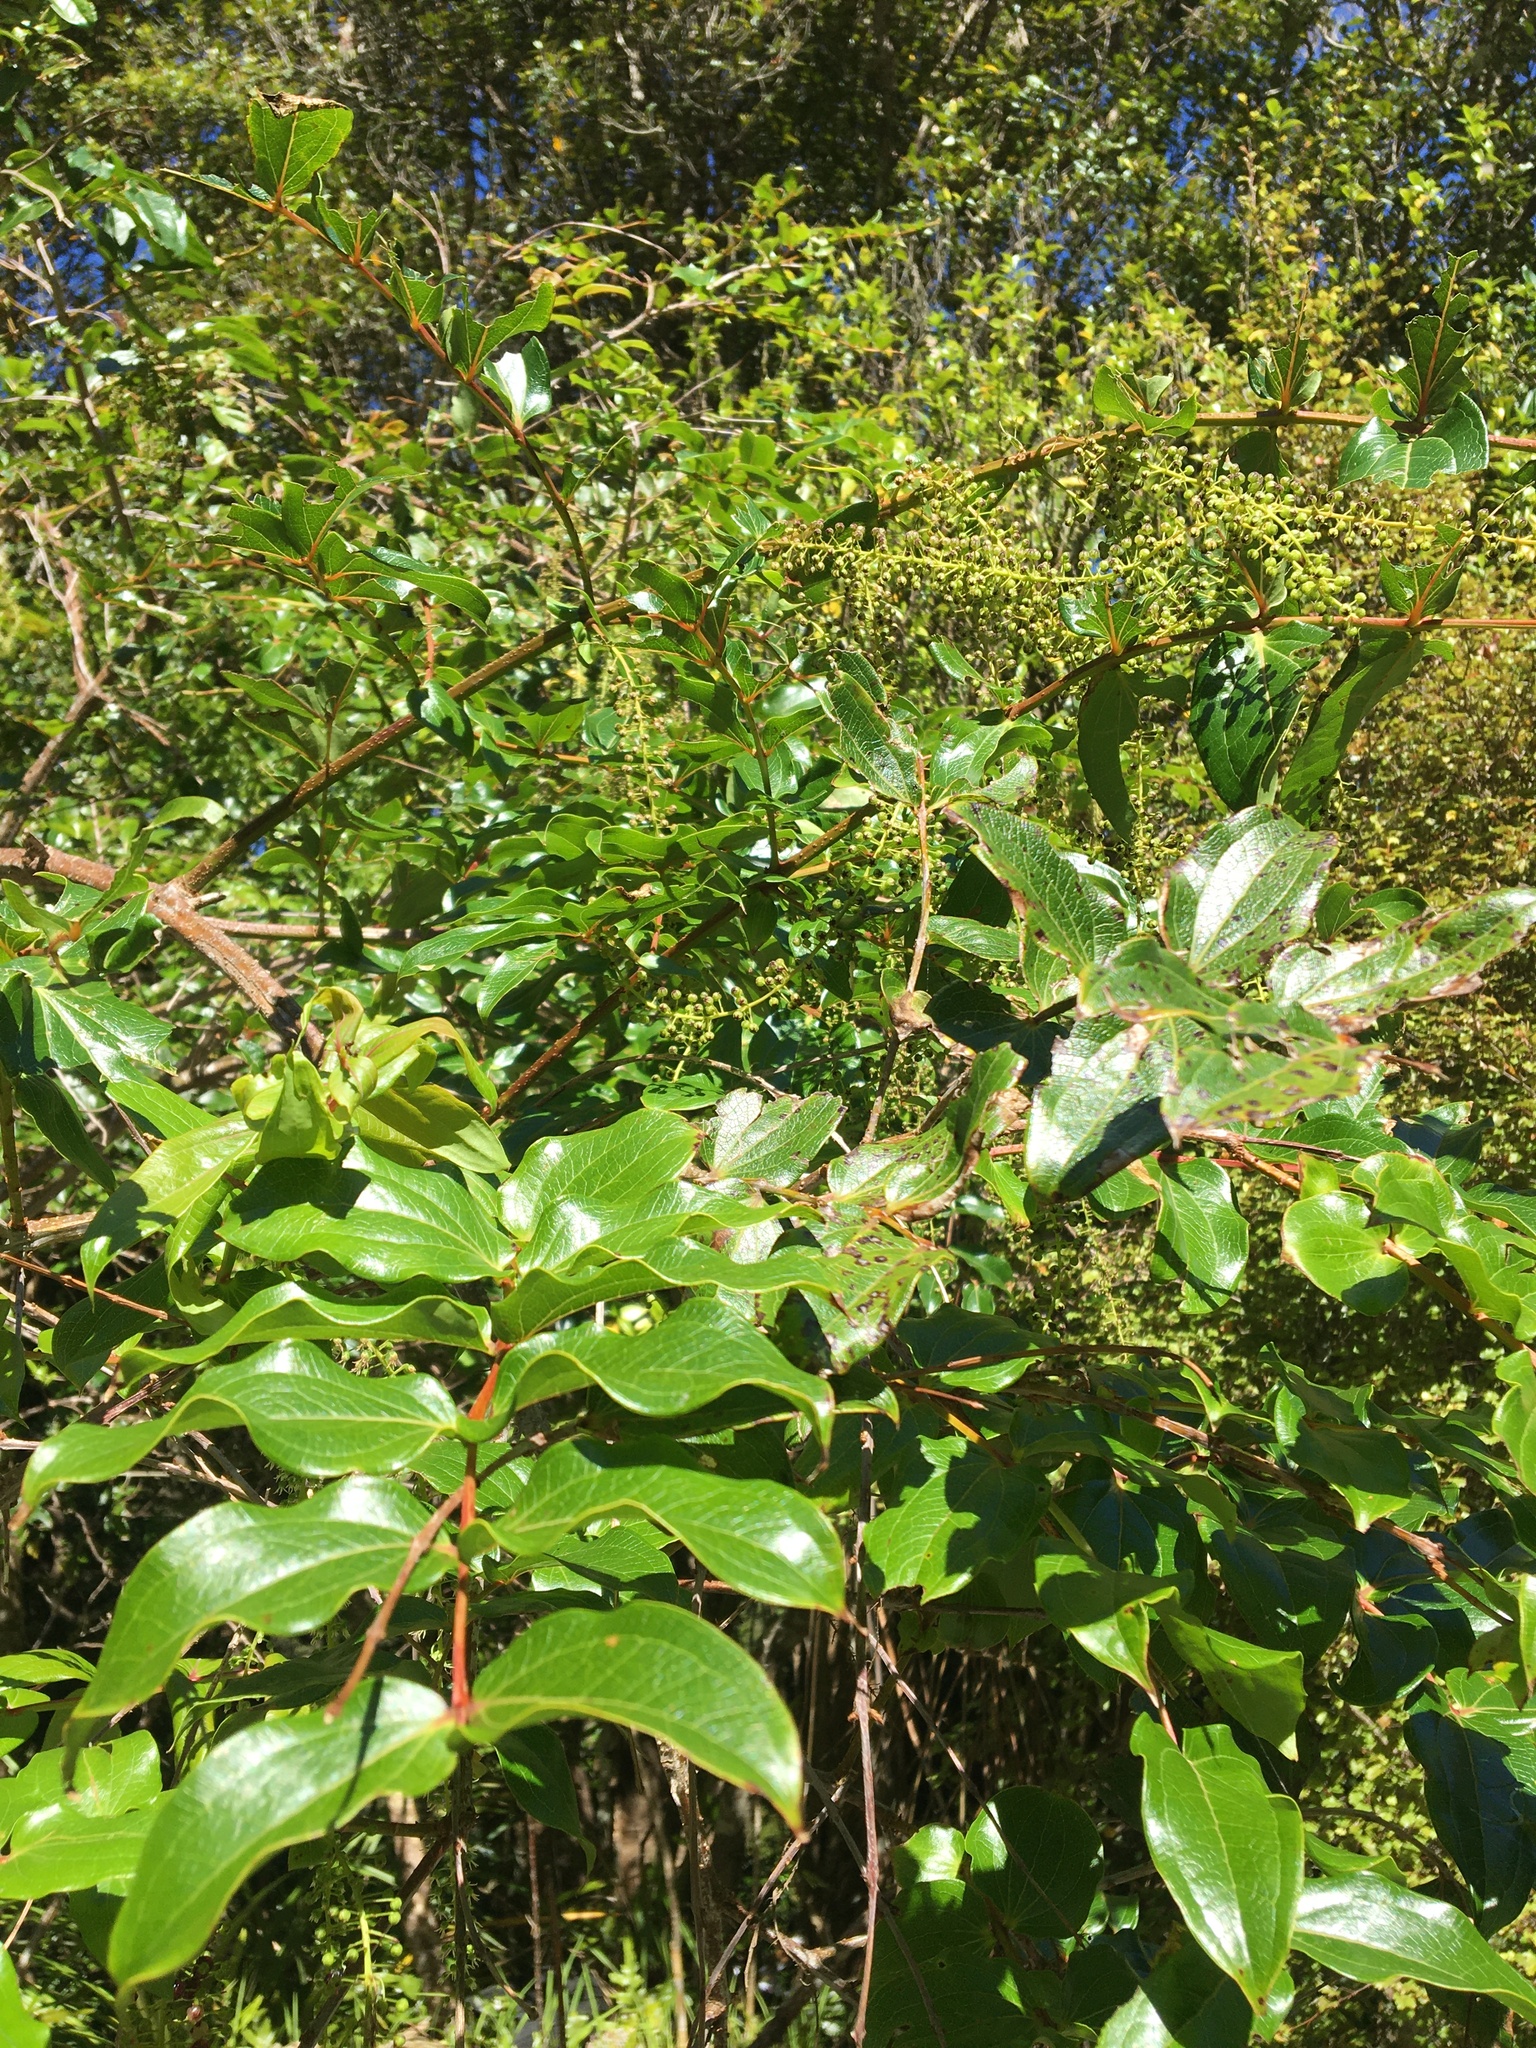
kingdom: Plantae
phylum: Tracheophyta
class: Magnoliopsida
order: Cucurbitales
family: Coriariaceae
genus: Coriaria
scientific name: Coriaria arborea
